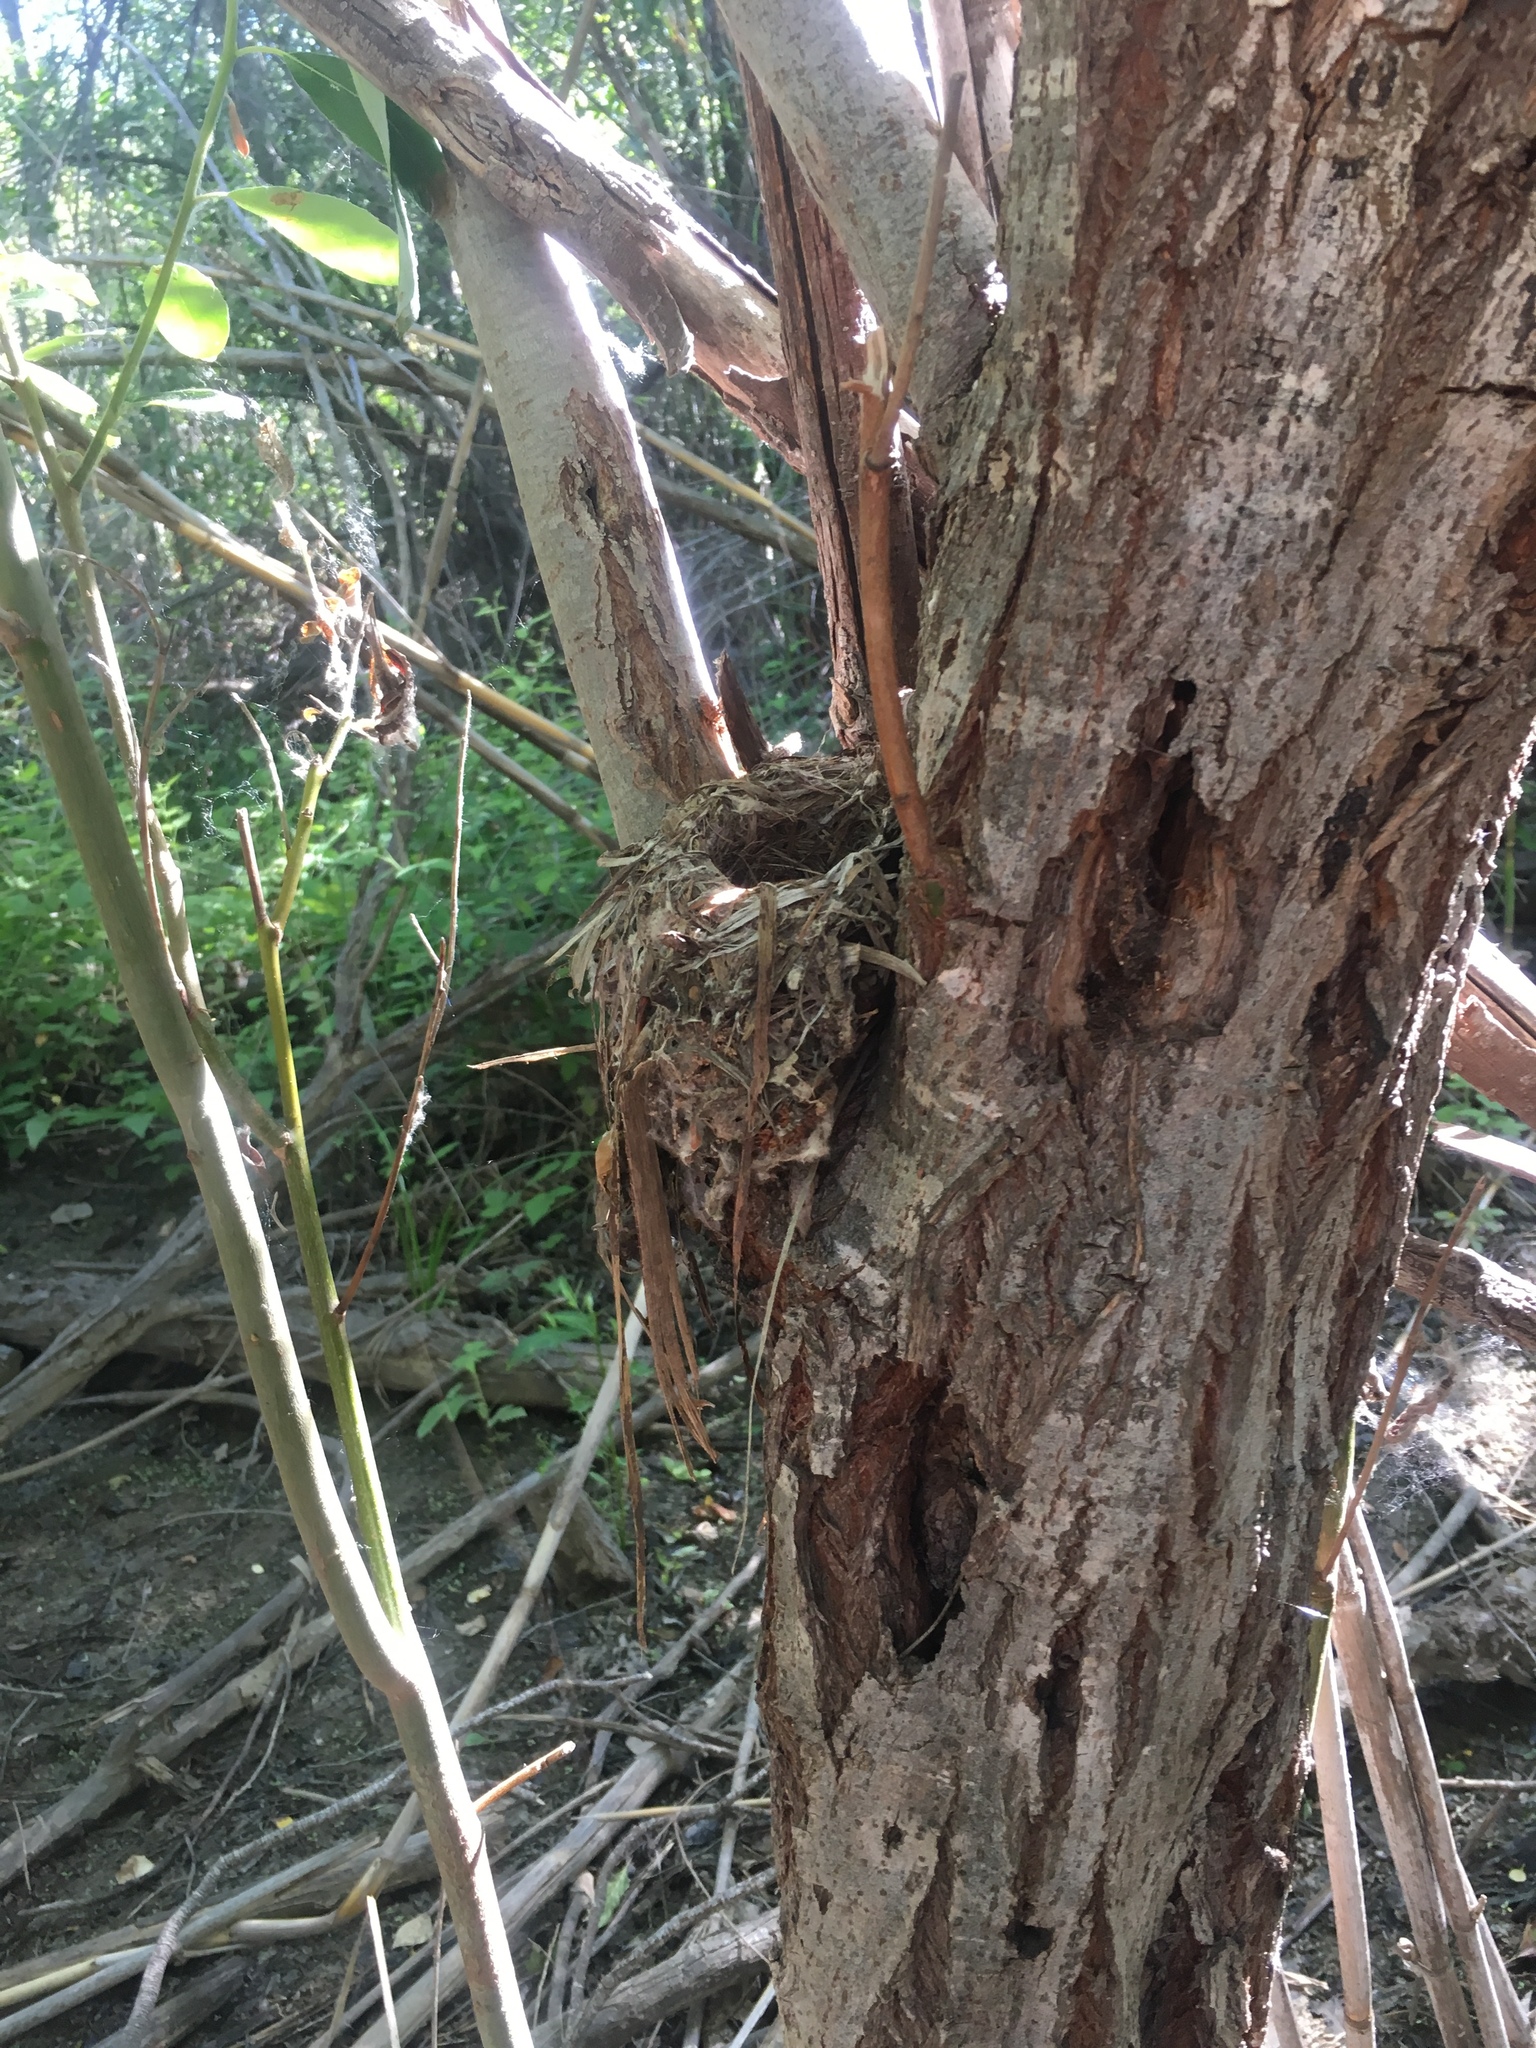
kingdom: Animalia
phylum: Chordata
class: Aves
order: Passeriformes
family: Tyrannidae
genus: Empidonax
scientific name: Empidonax difficilis
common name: Pacific-slope flycatcher
